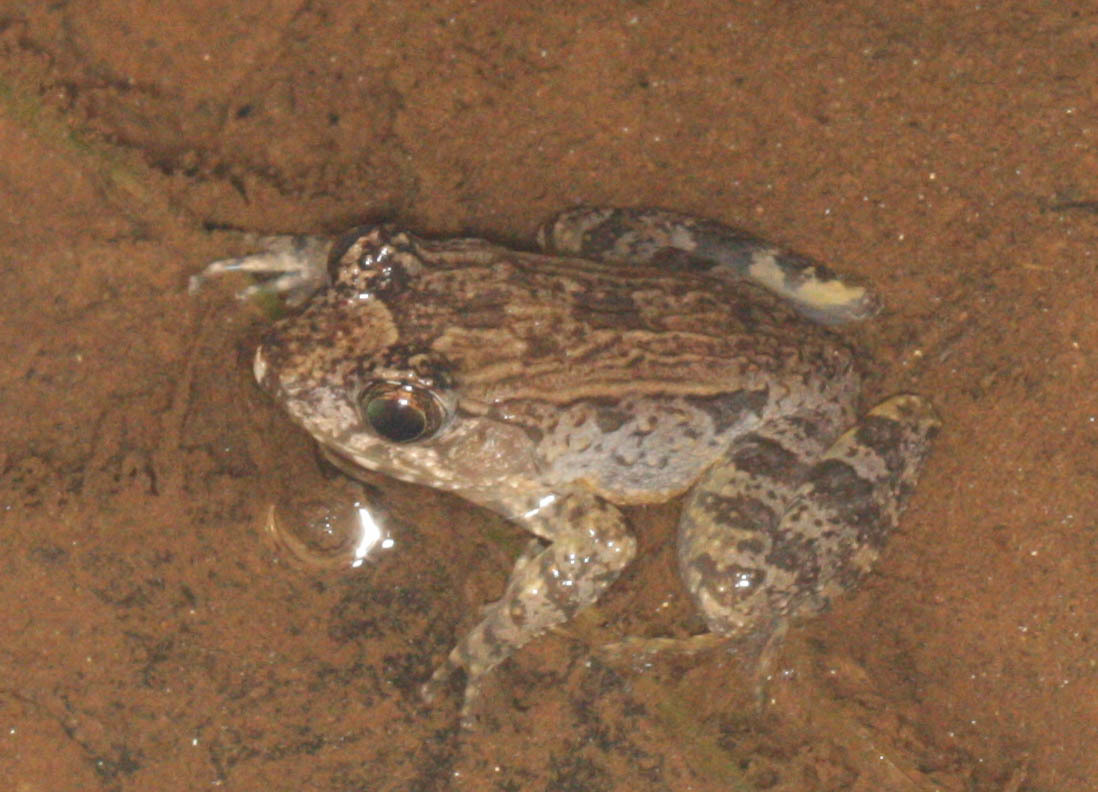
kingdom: Animalia
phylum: Chordata
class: Amphibia
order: Anura
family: Mantellidae
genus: Mantidactylus
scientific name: Mantidactylus betsileanus
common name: Betsileo madagascar frog
